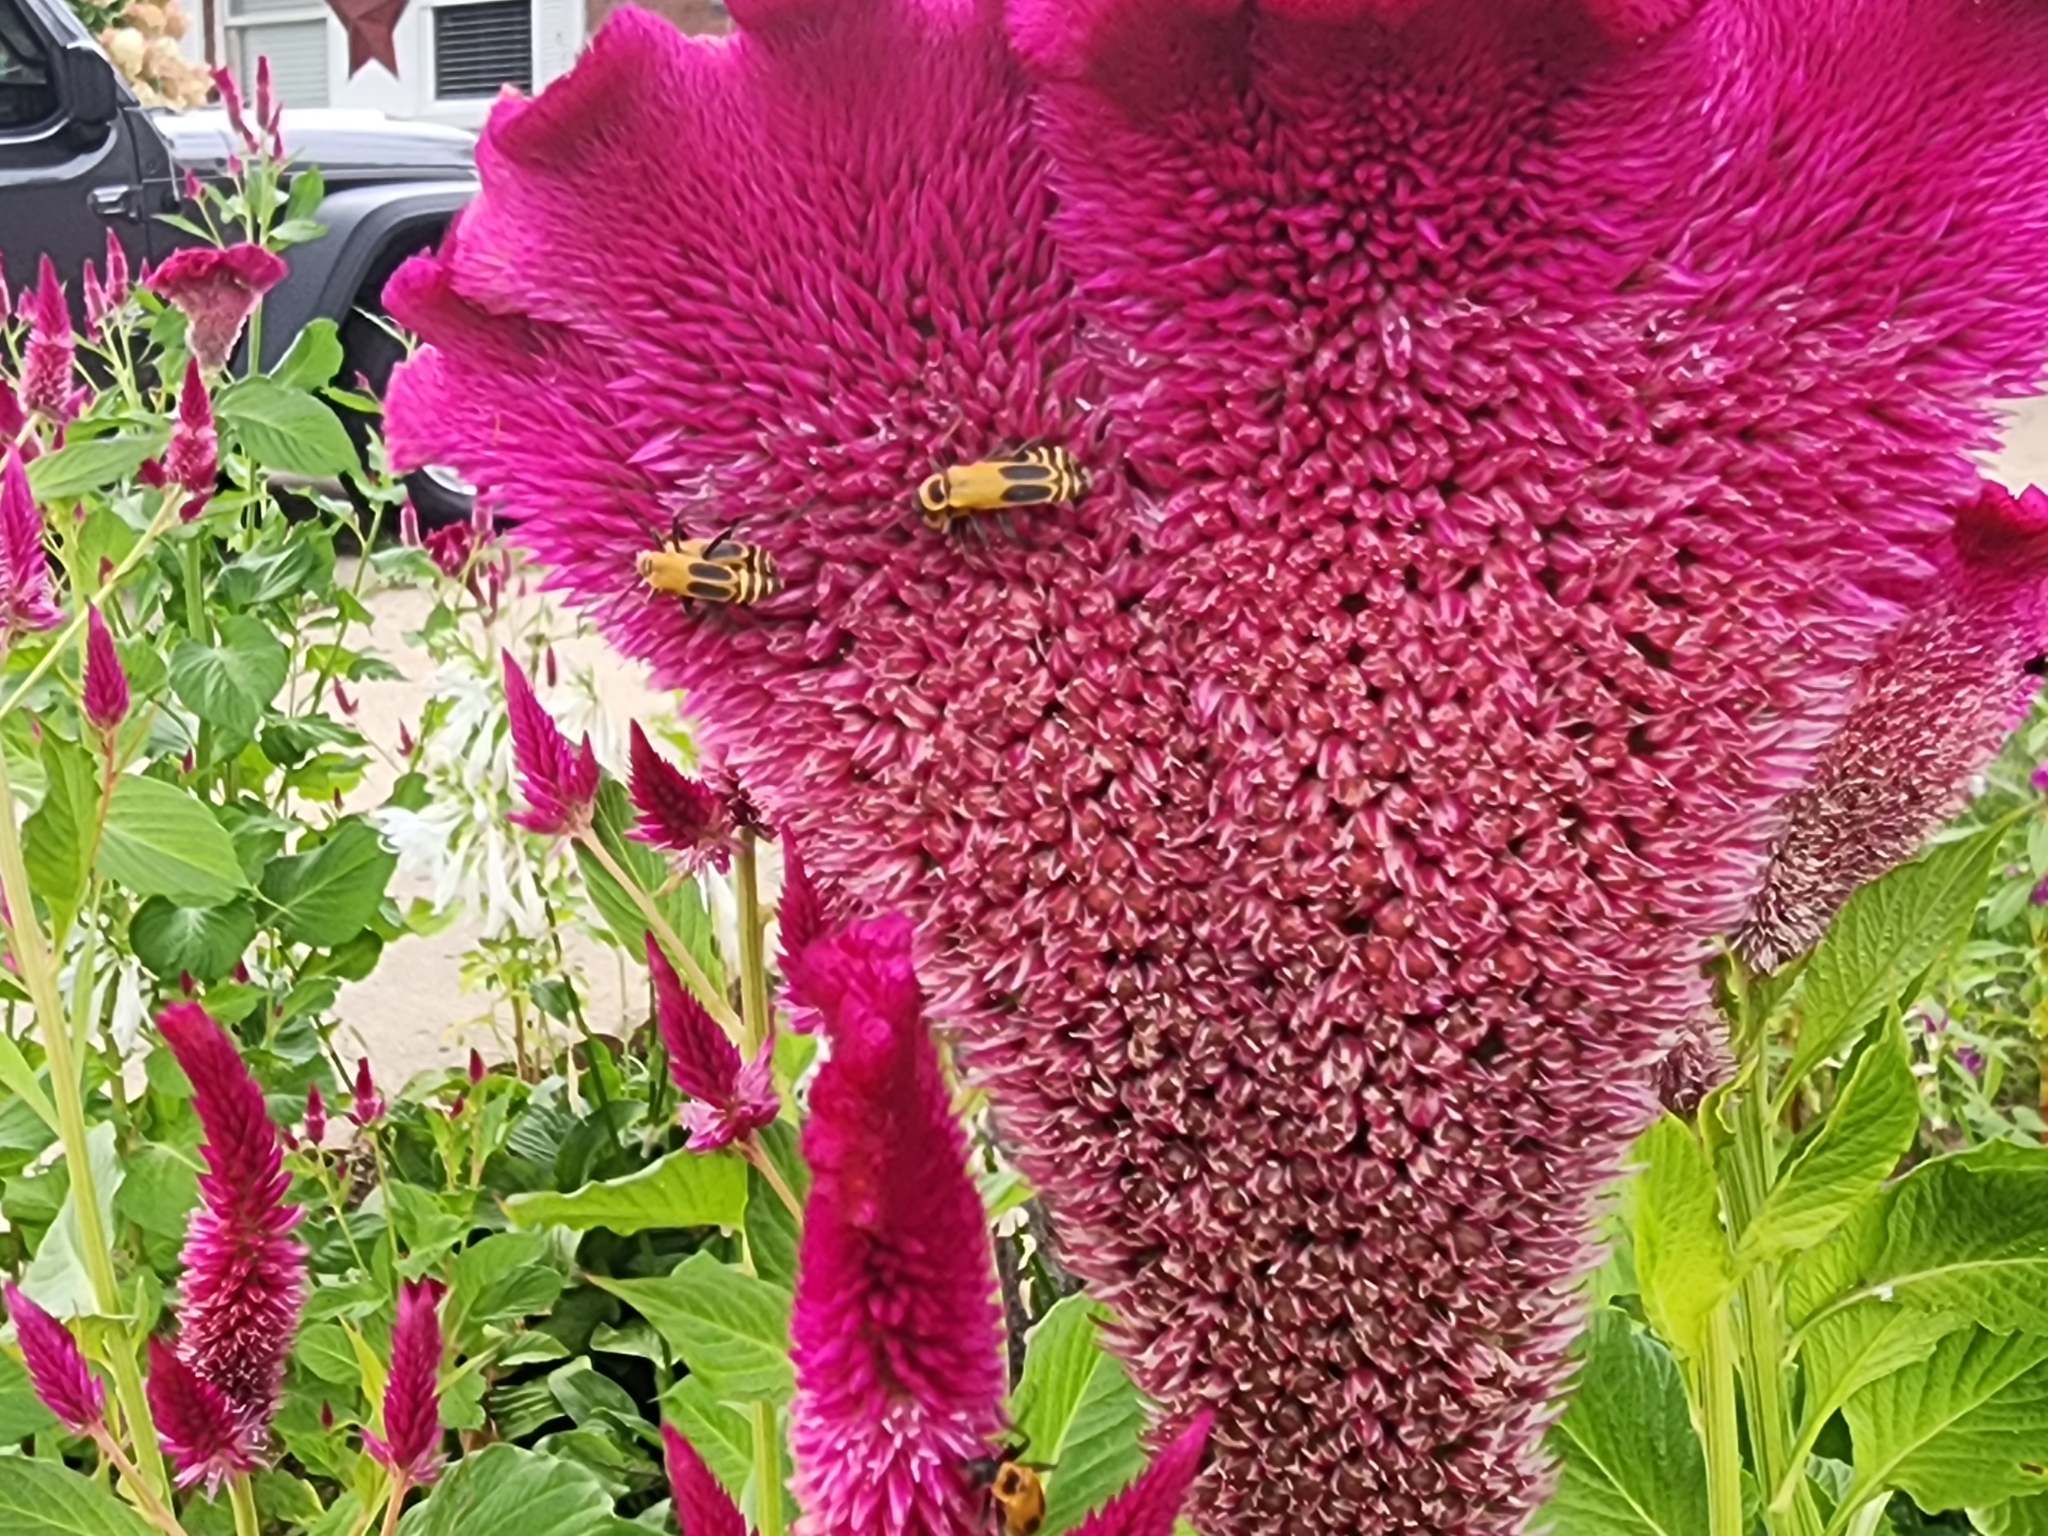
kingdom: Animalia
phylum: Arthropoda
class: Insecta
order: Coleoptera
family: Cantharidae
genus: Chauliognathus
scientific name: Chauliognathus pensylvanicus
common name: Goldenrod soldier beetle
